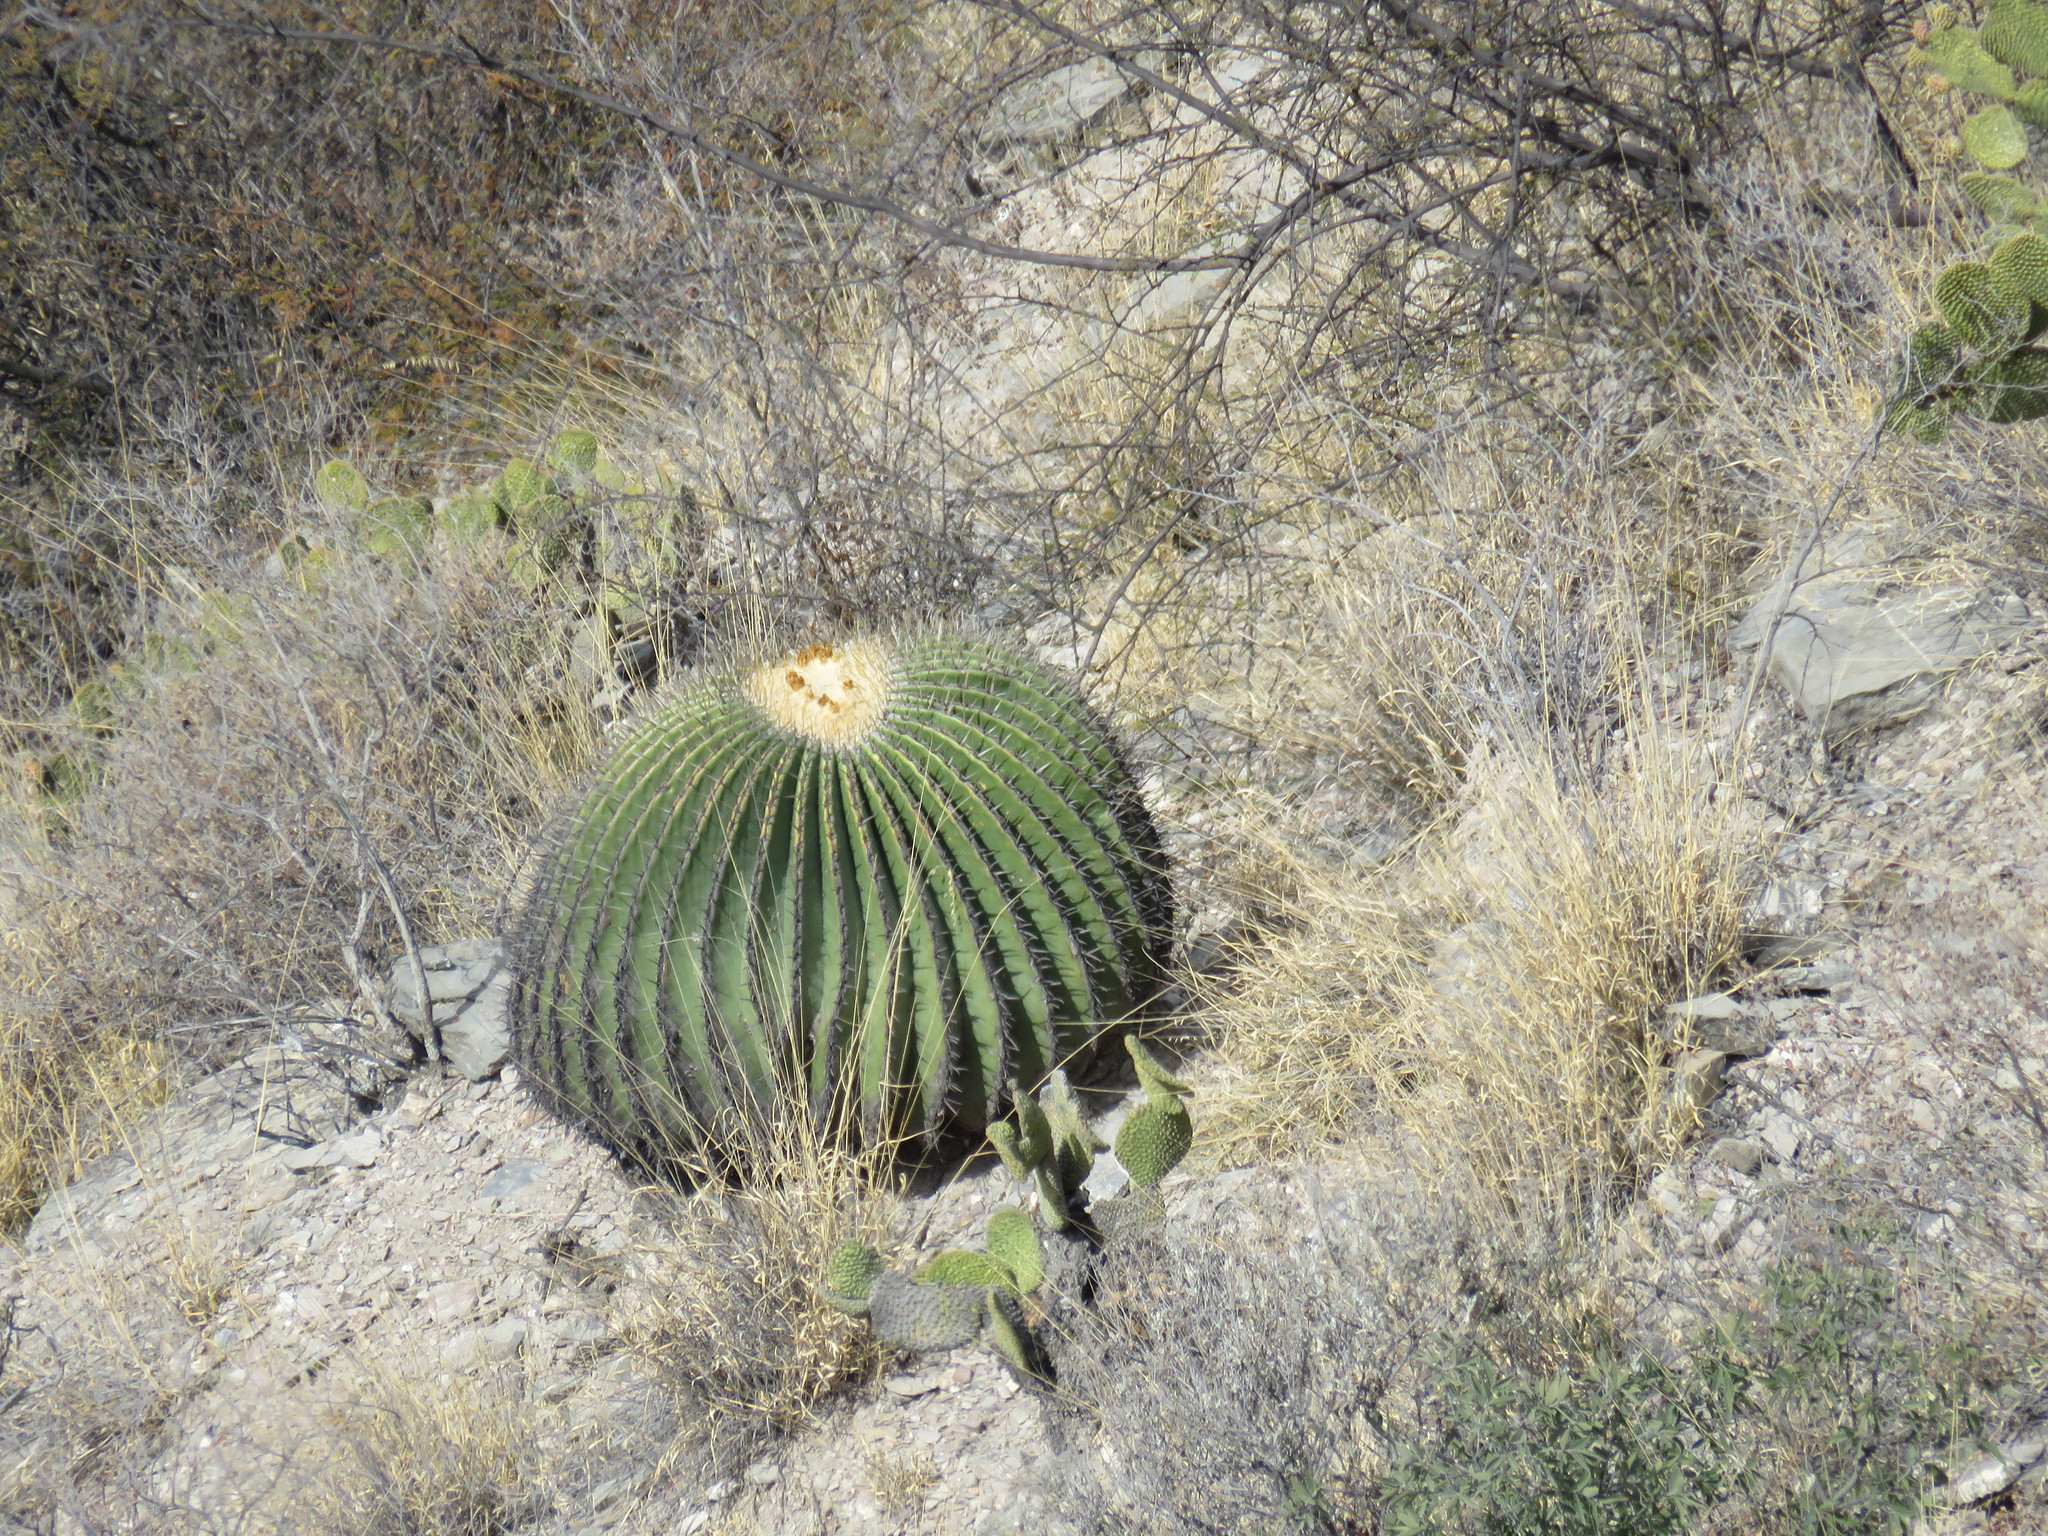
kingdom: Plantae
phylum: Tracheophyta
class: Magnoliopsida
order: Caryophyllales
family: Cactaceae
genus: Echinocactus
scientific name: Echinocactus platyacanthus
